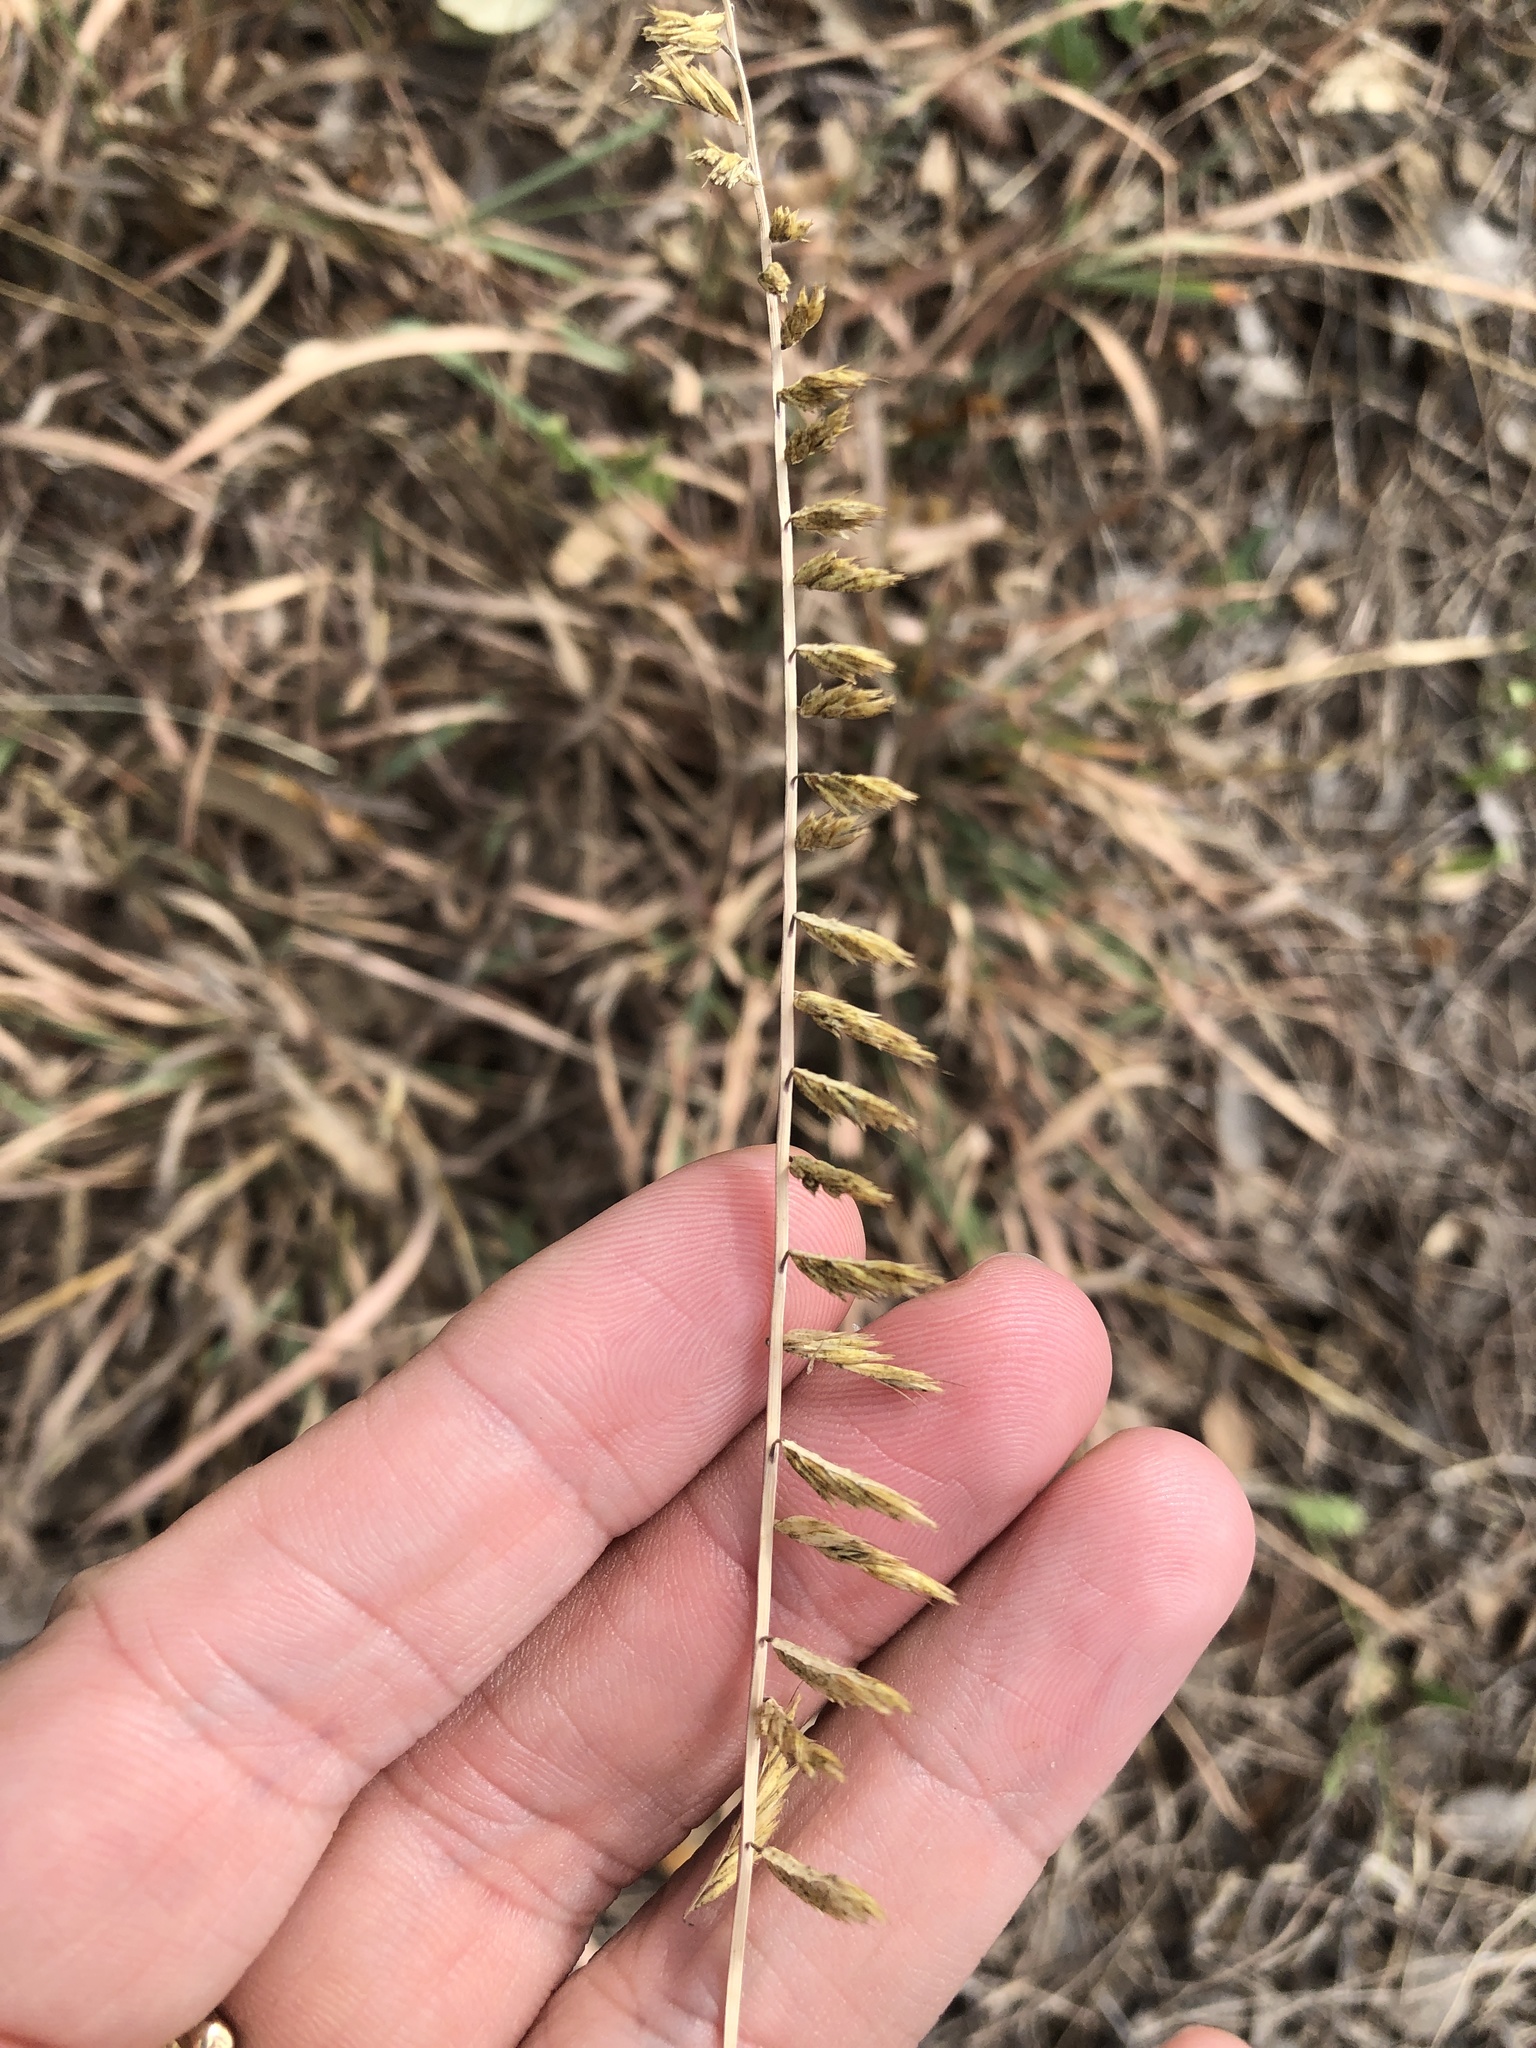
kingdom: Plantae
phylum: Tracheophyta
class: Liliopsida
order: Poales
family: Poaceae
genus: Bouteloua
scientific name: Bouteloua curtipendula
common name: Side-oats grama
